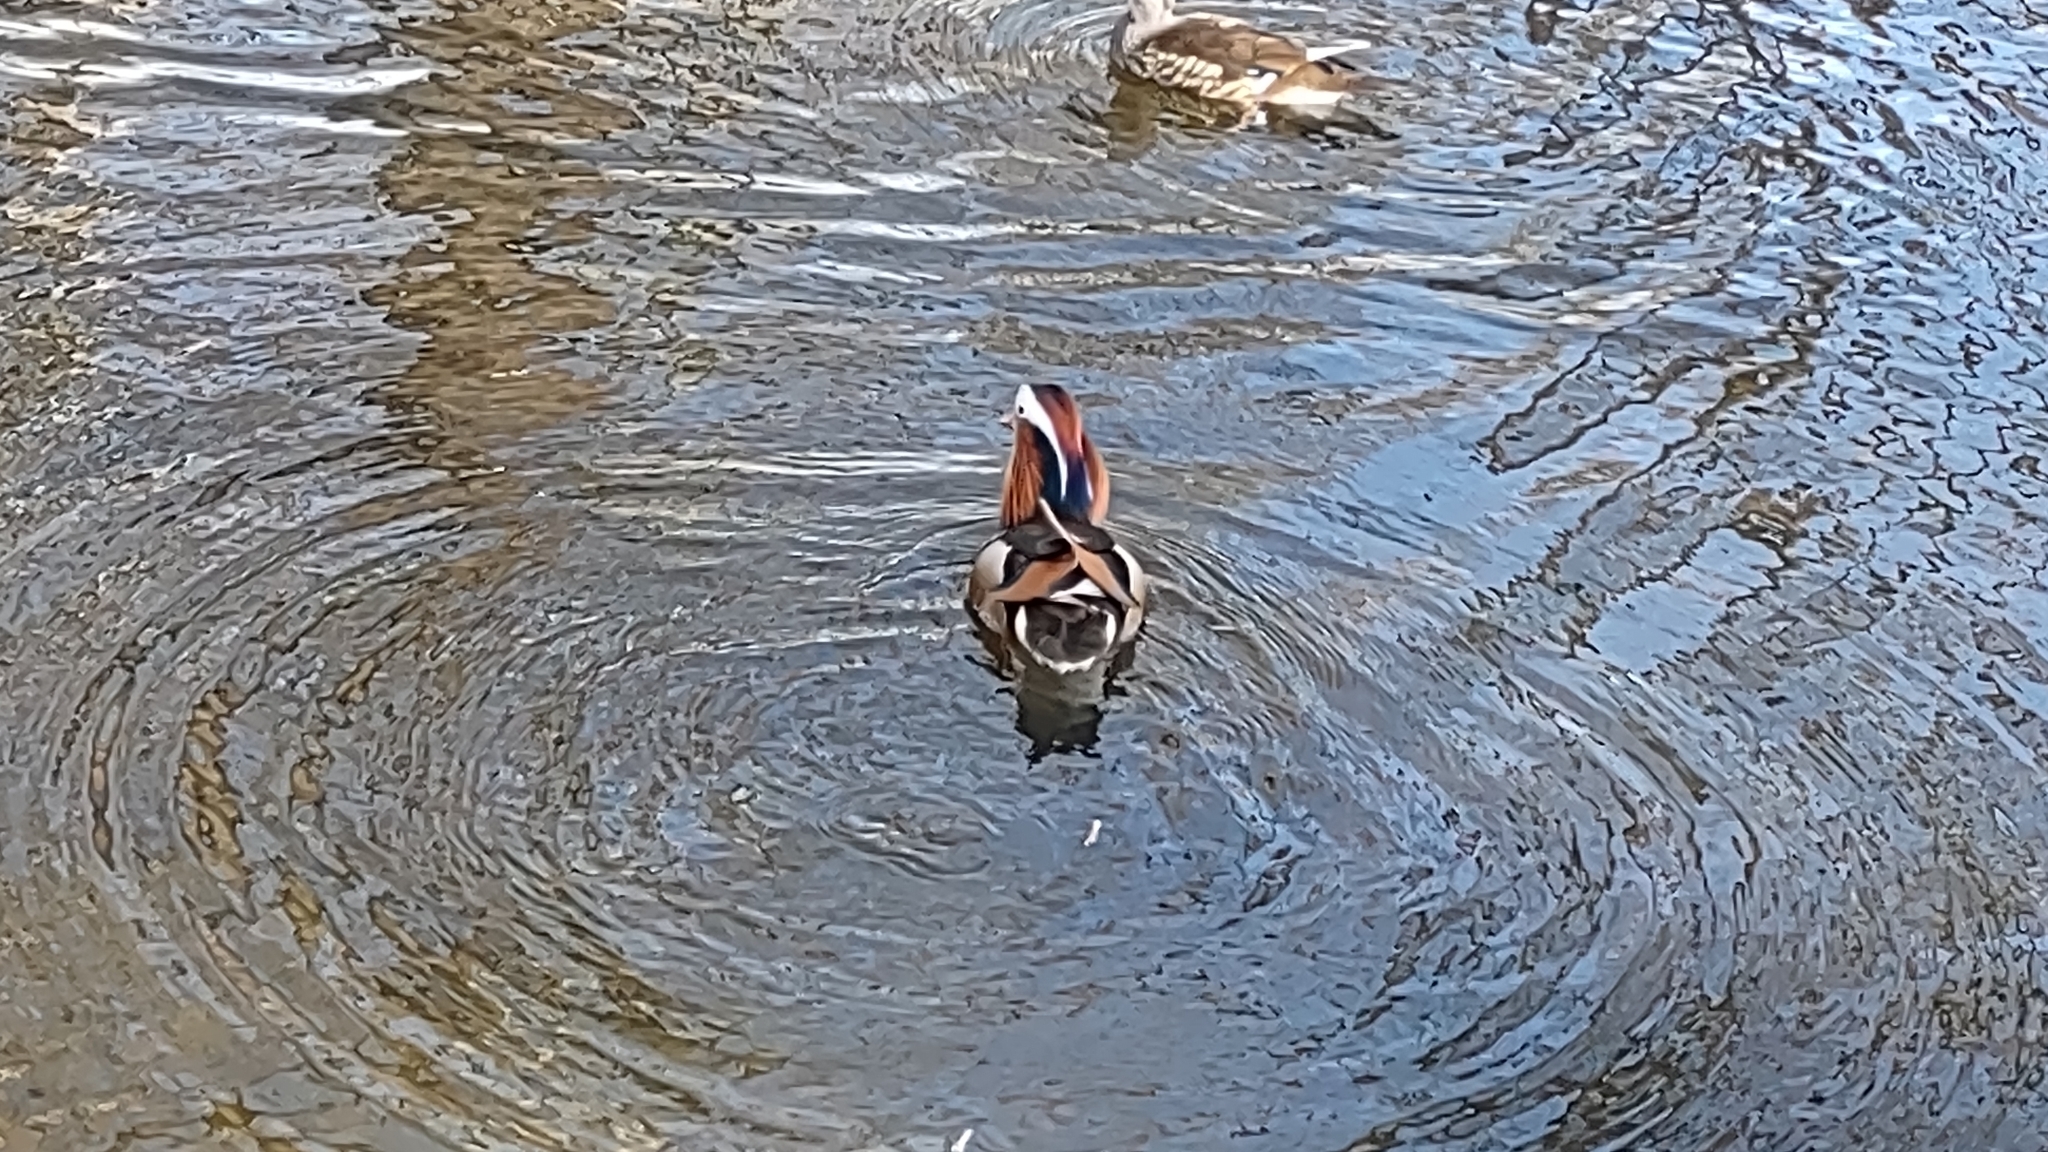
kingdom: Animalia
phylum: Chordata
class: Aves
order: Anseriformes
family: Anatidae
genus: Aix
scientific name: Aix galericulata
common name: Mandarin duck
